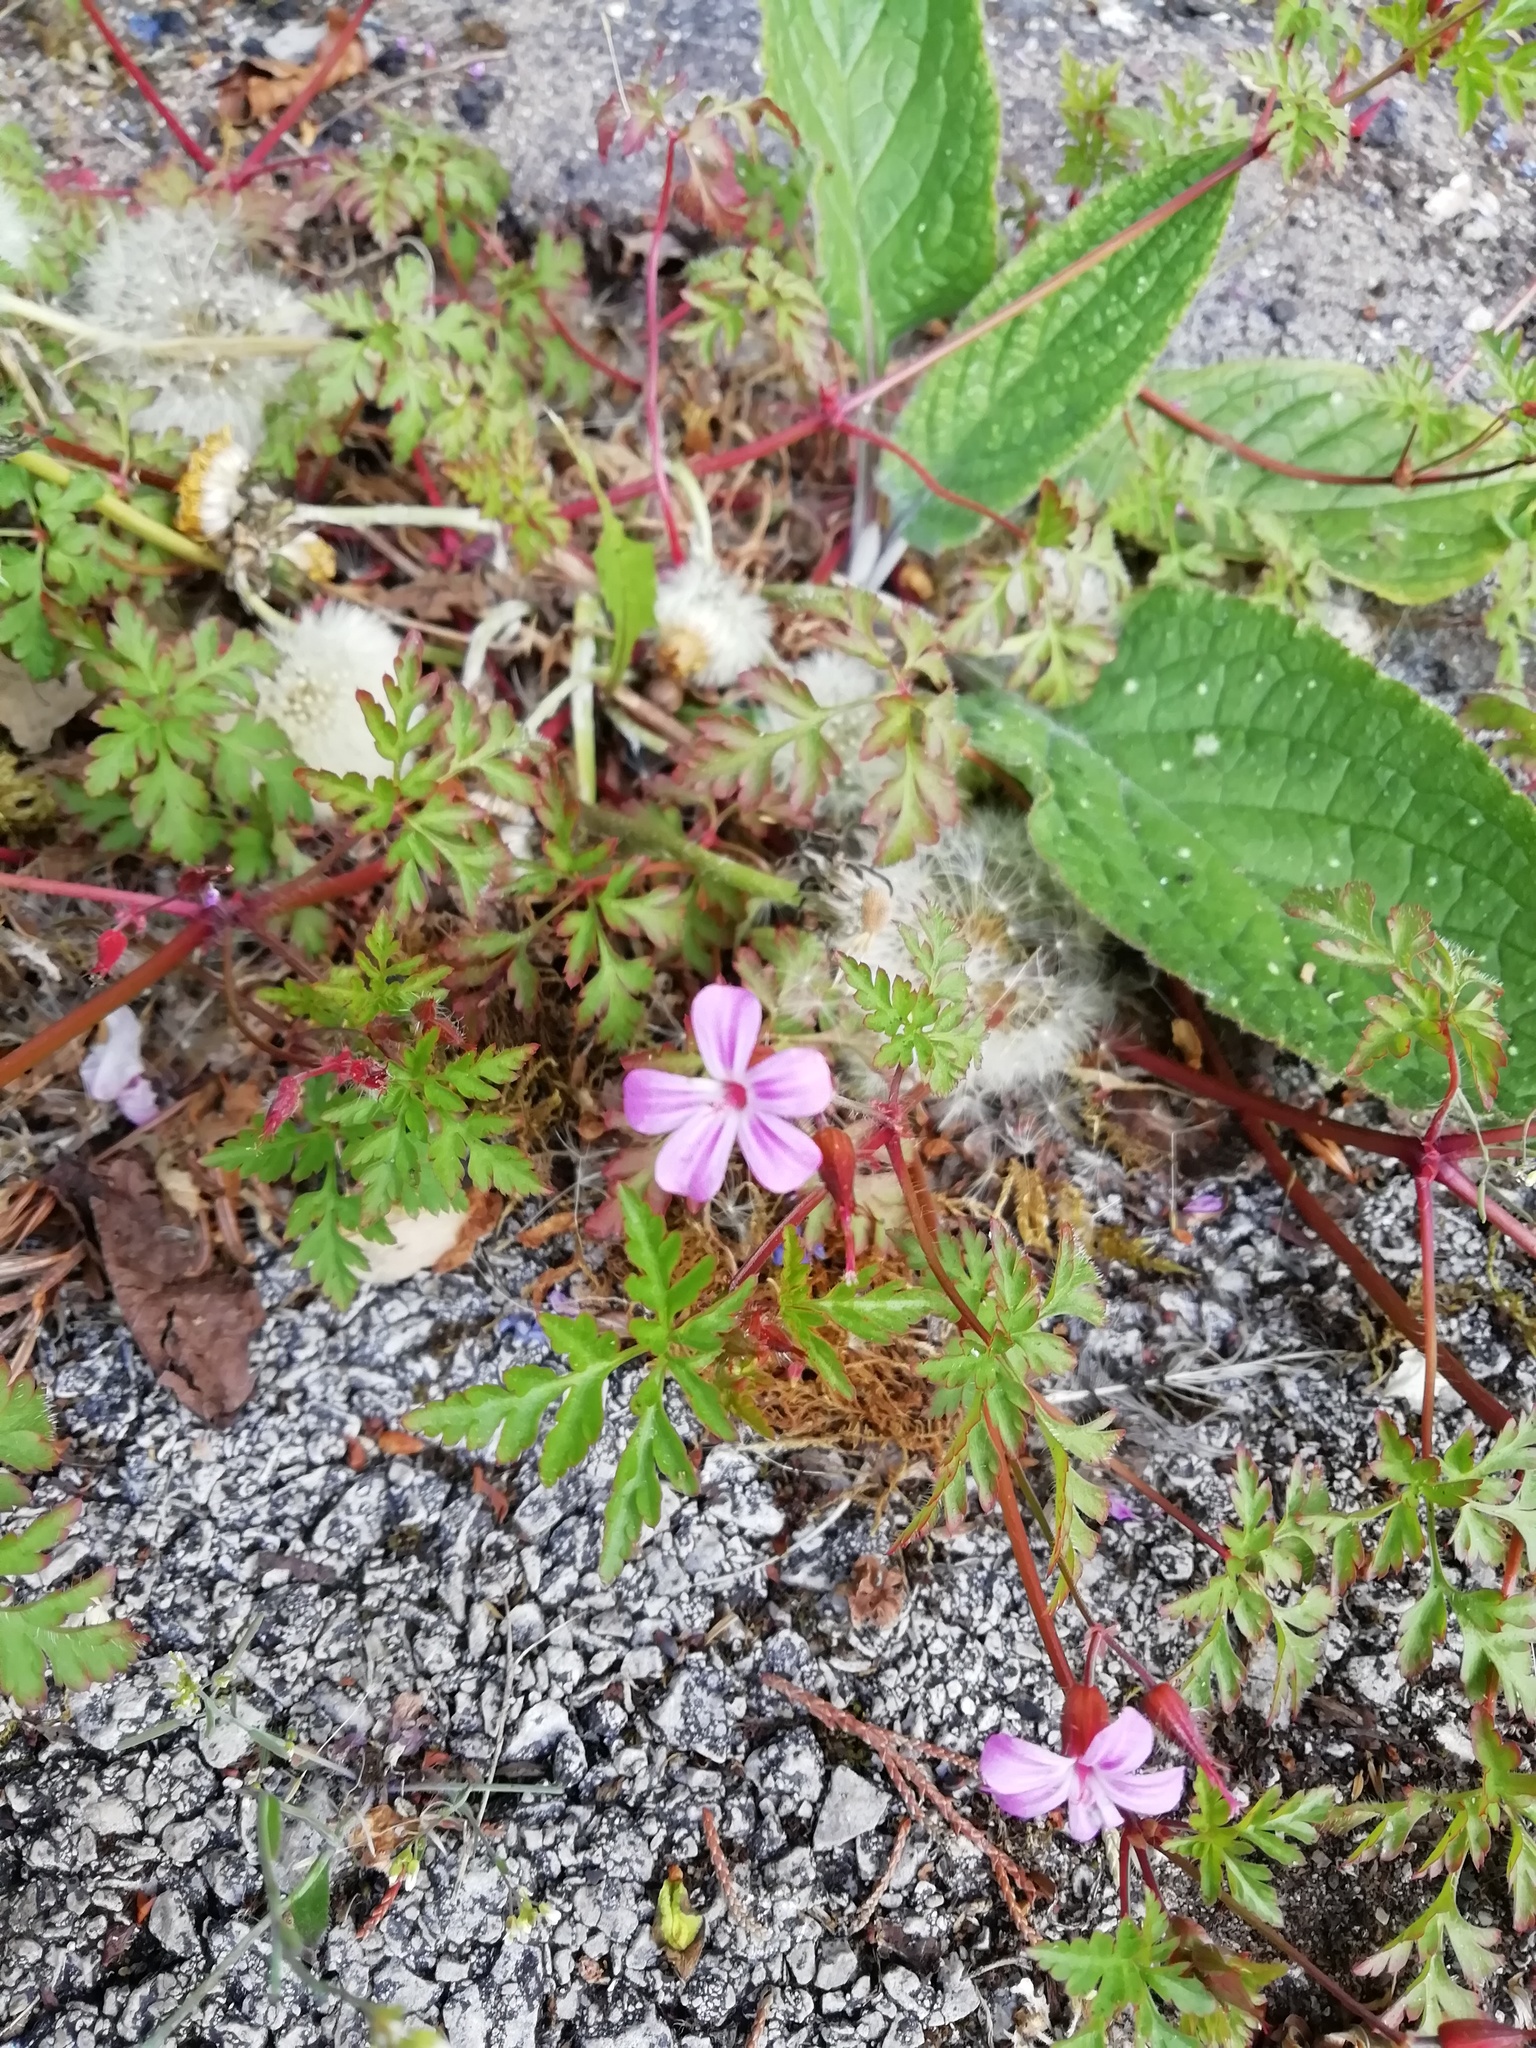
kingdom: Plantae
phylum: Tracheophyta
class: Magnoliopsida
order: Geraniales
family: Geraniaceae
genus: Geranium
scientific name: Geranium robertianum
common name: Herb-robert
